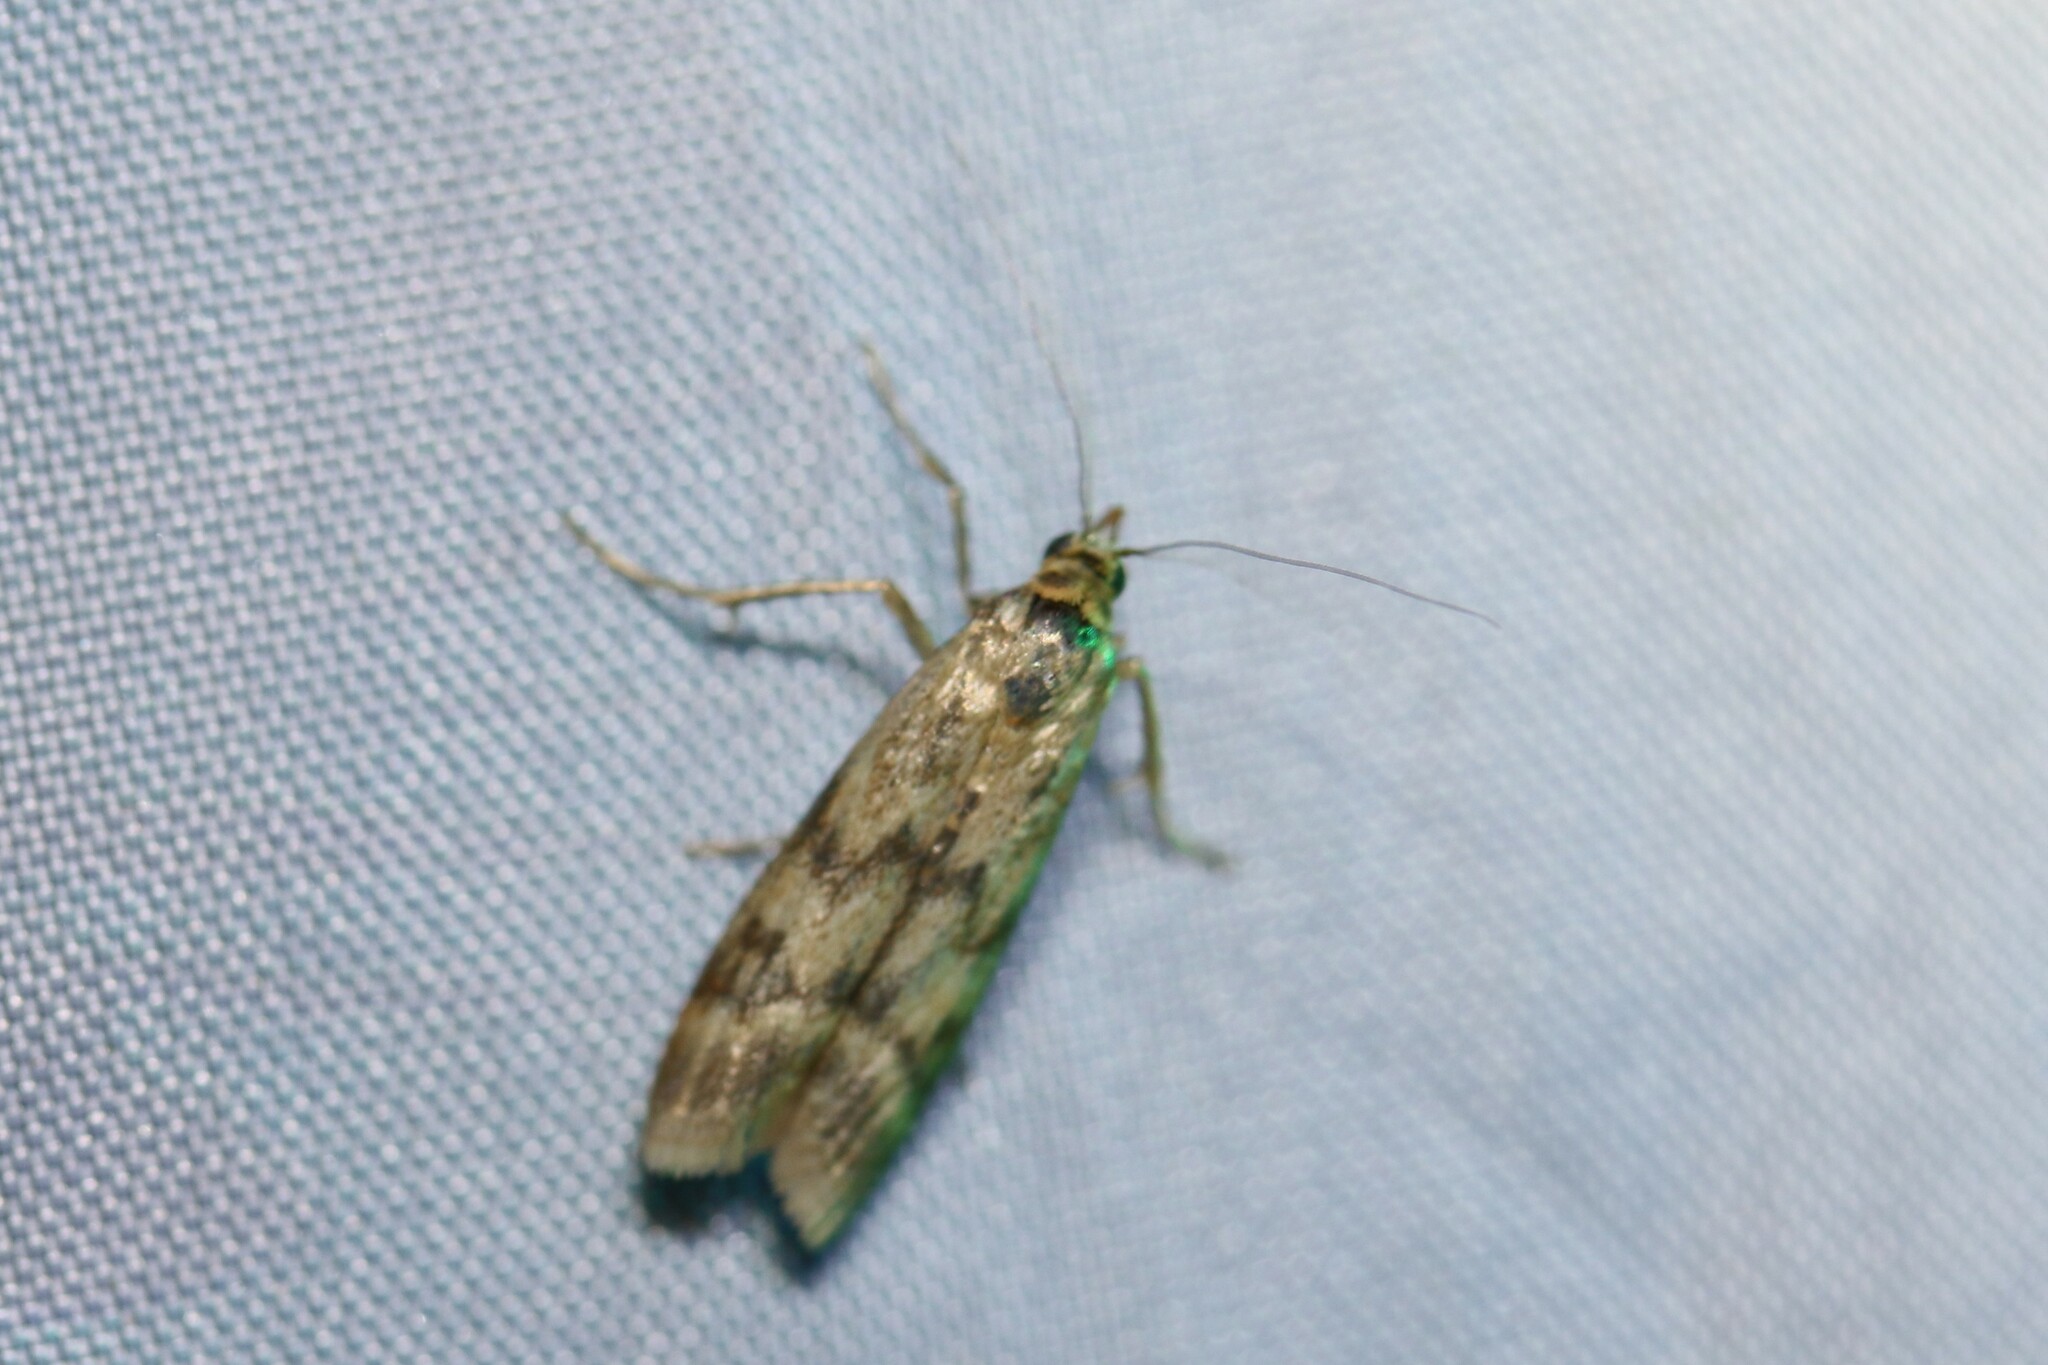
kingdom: Animalia
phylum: Arthropoda
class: Insecta
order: Lepidoptera
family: Pyralidae
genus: Homoeosoma
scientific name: Homoeosoma sinuella
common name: Twin-barred knot-horn
